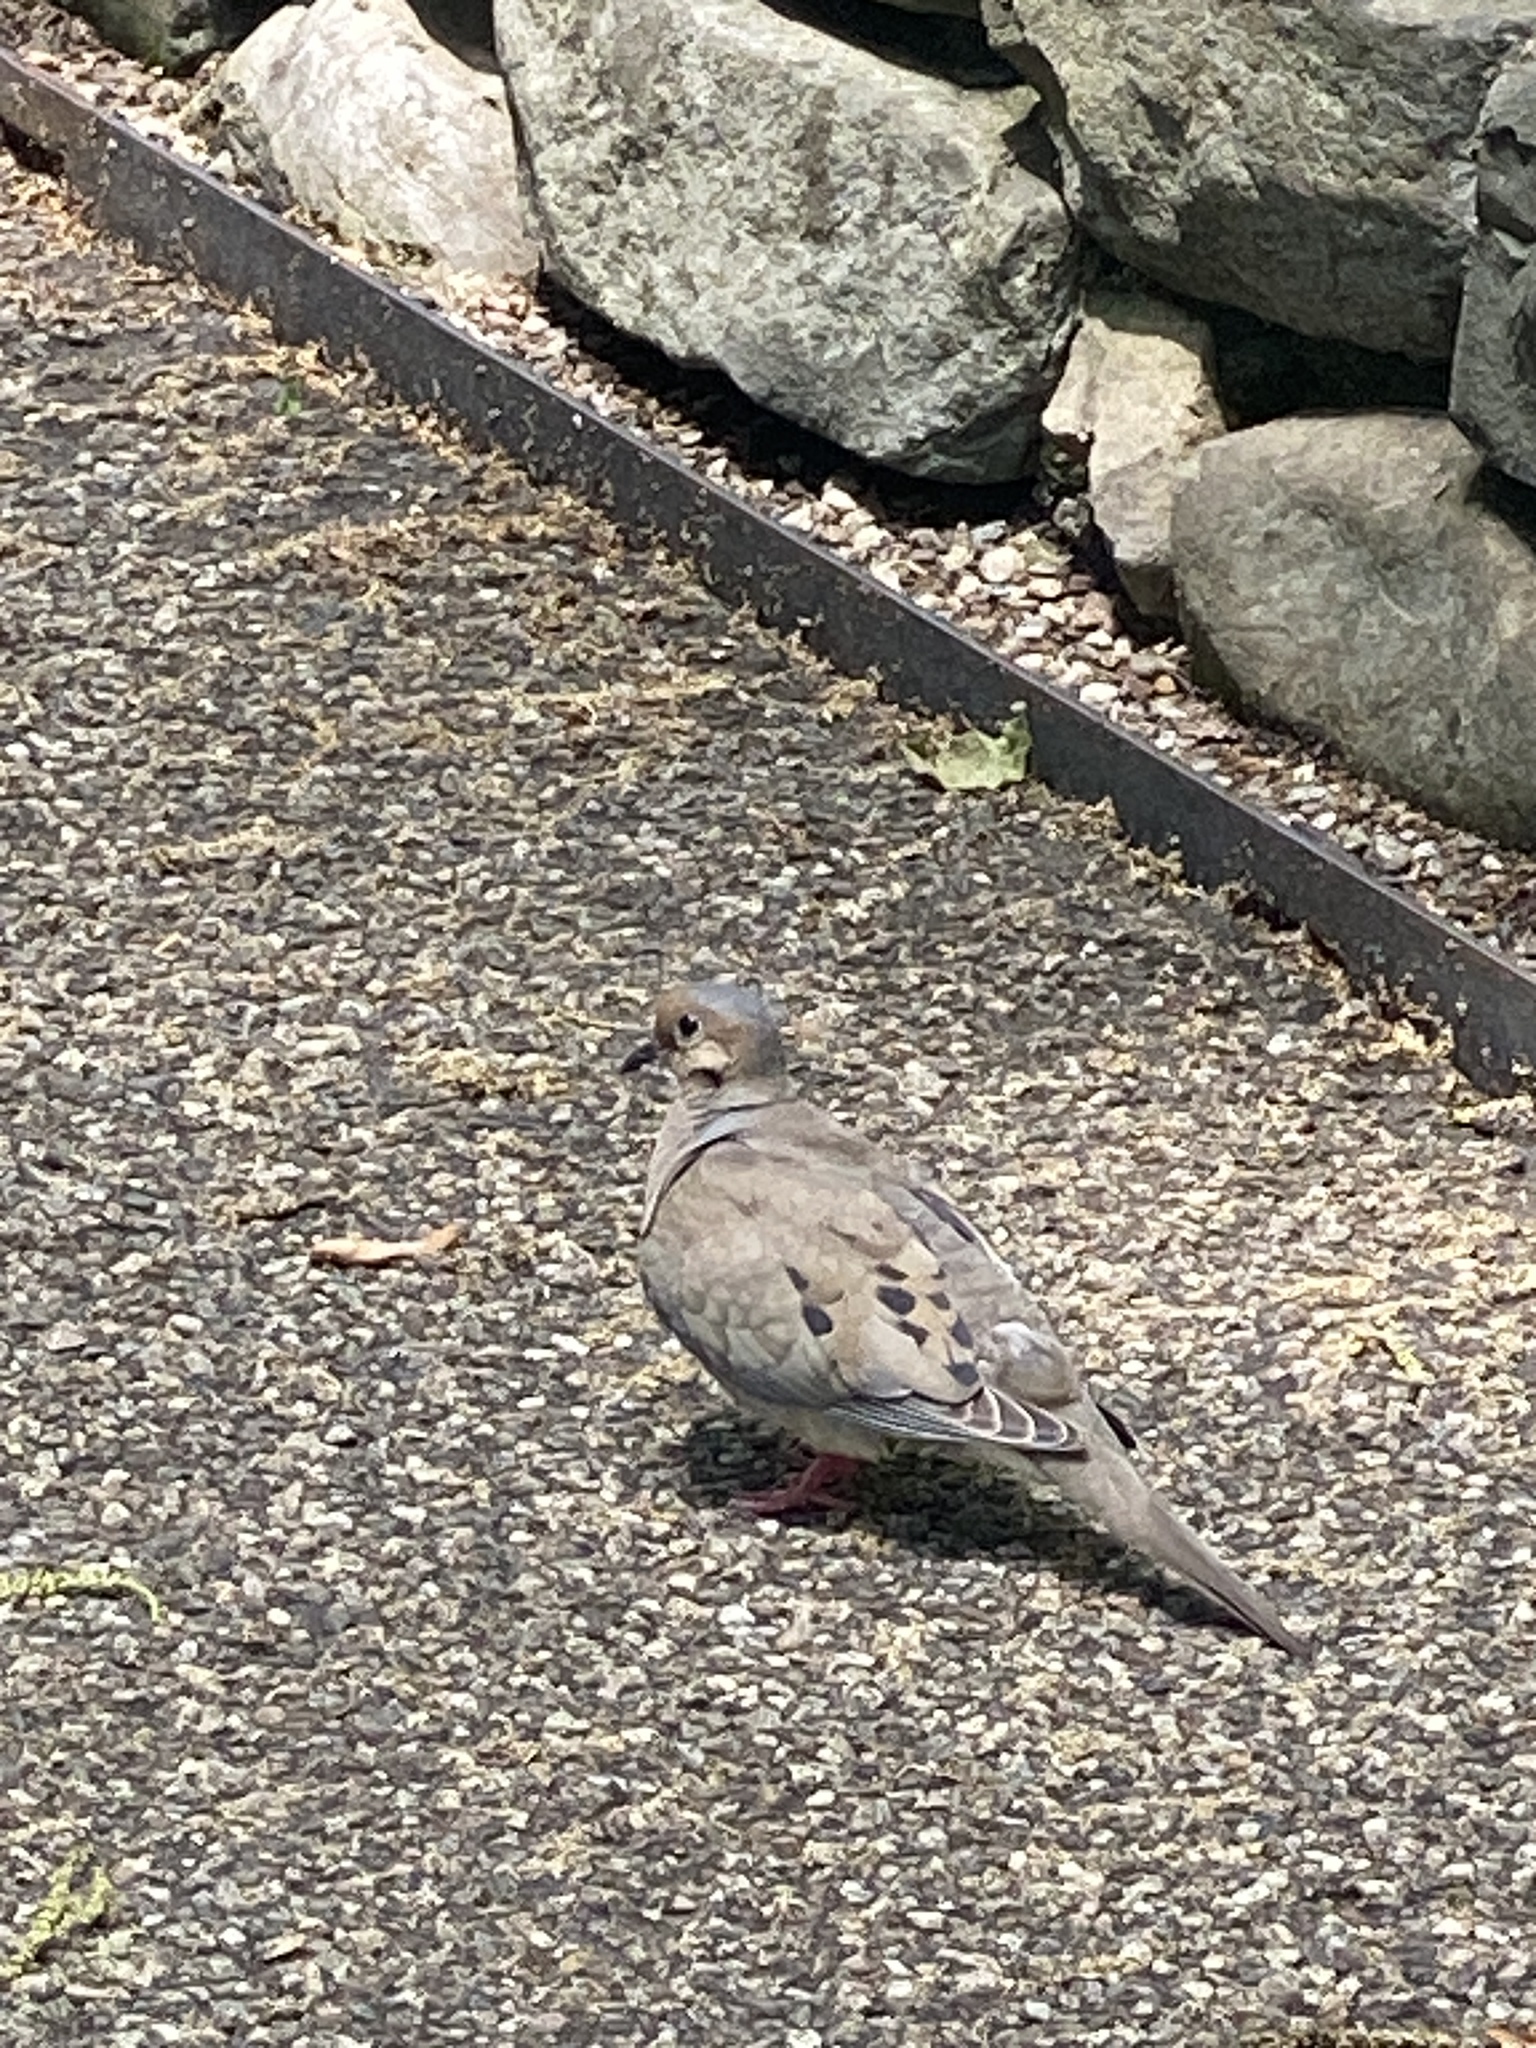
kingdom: Animalia
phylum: Chordata
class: Aves
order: Columbiformes
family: Columbidae
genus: Zenaida
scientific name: Zenaida macroura
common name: Mourning dove
